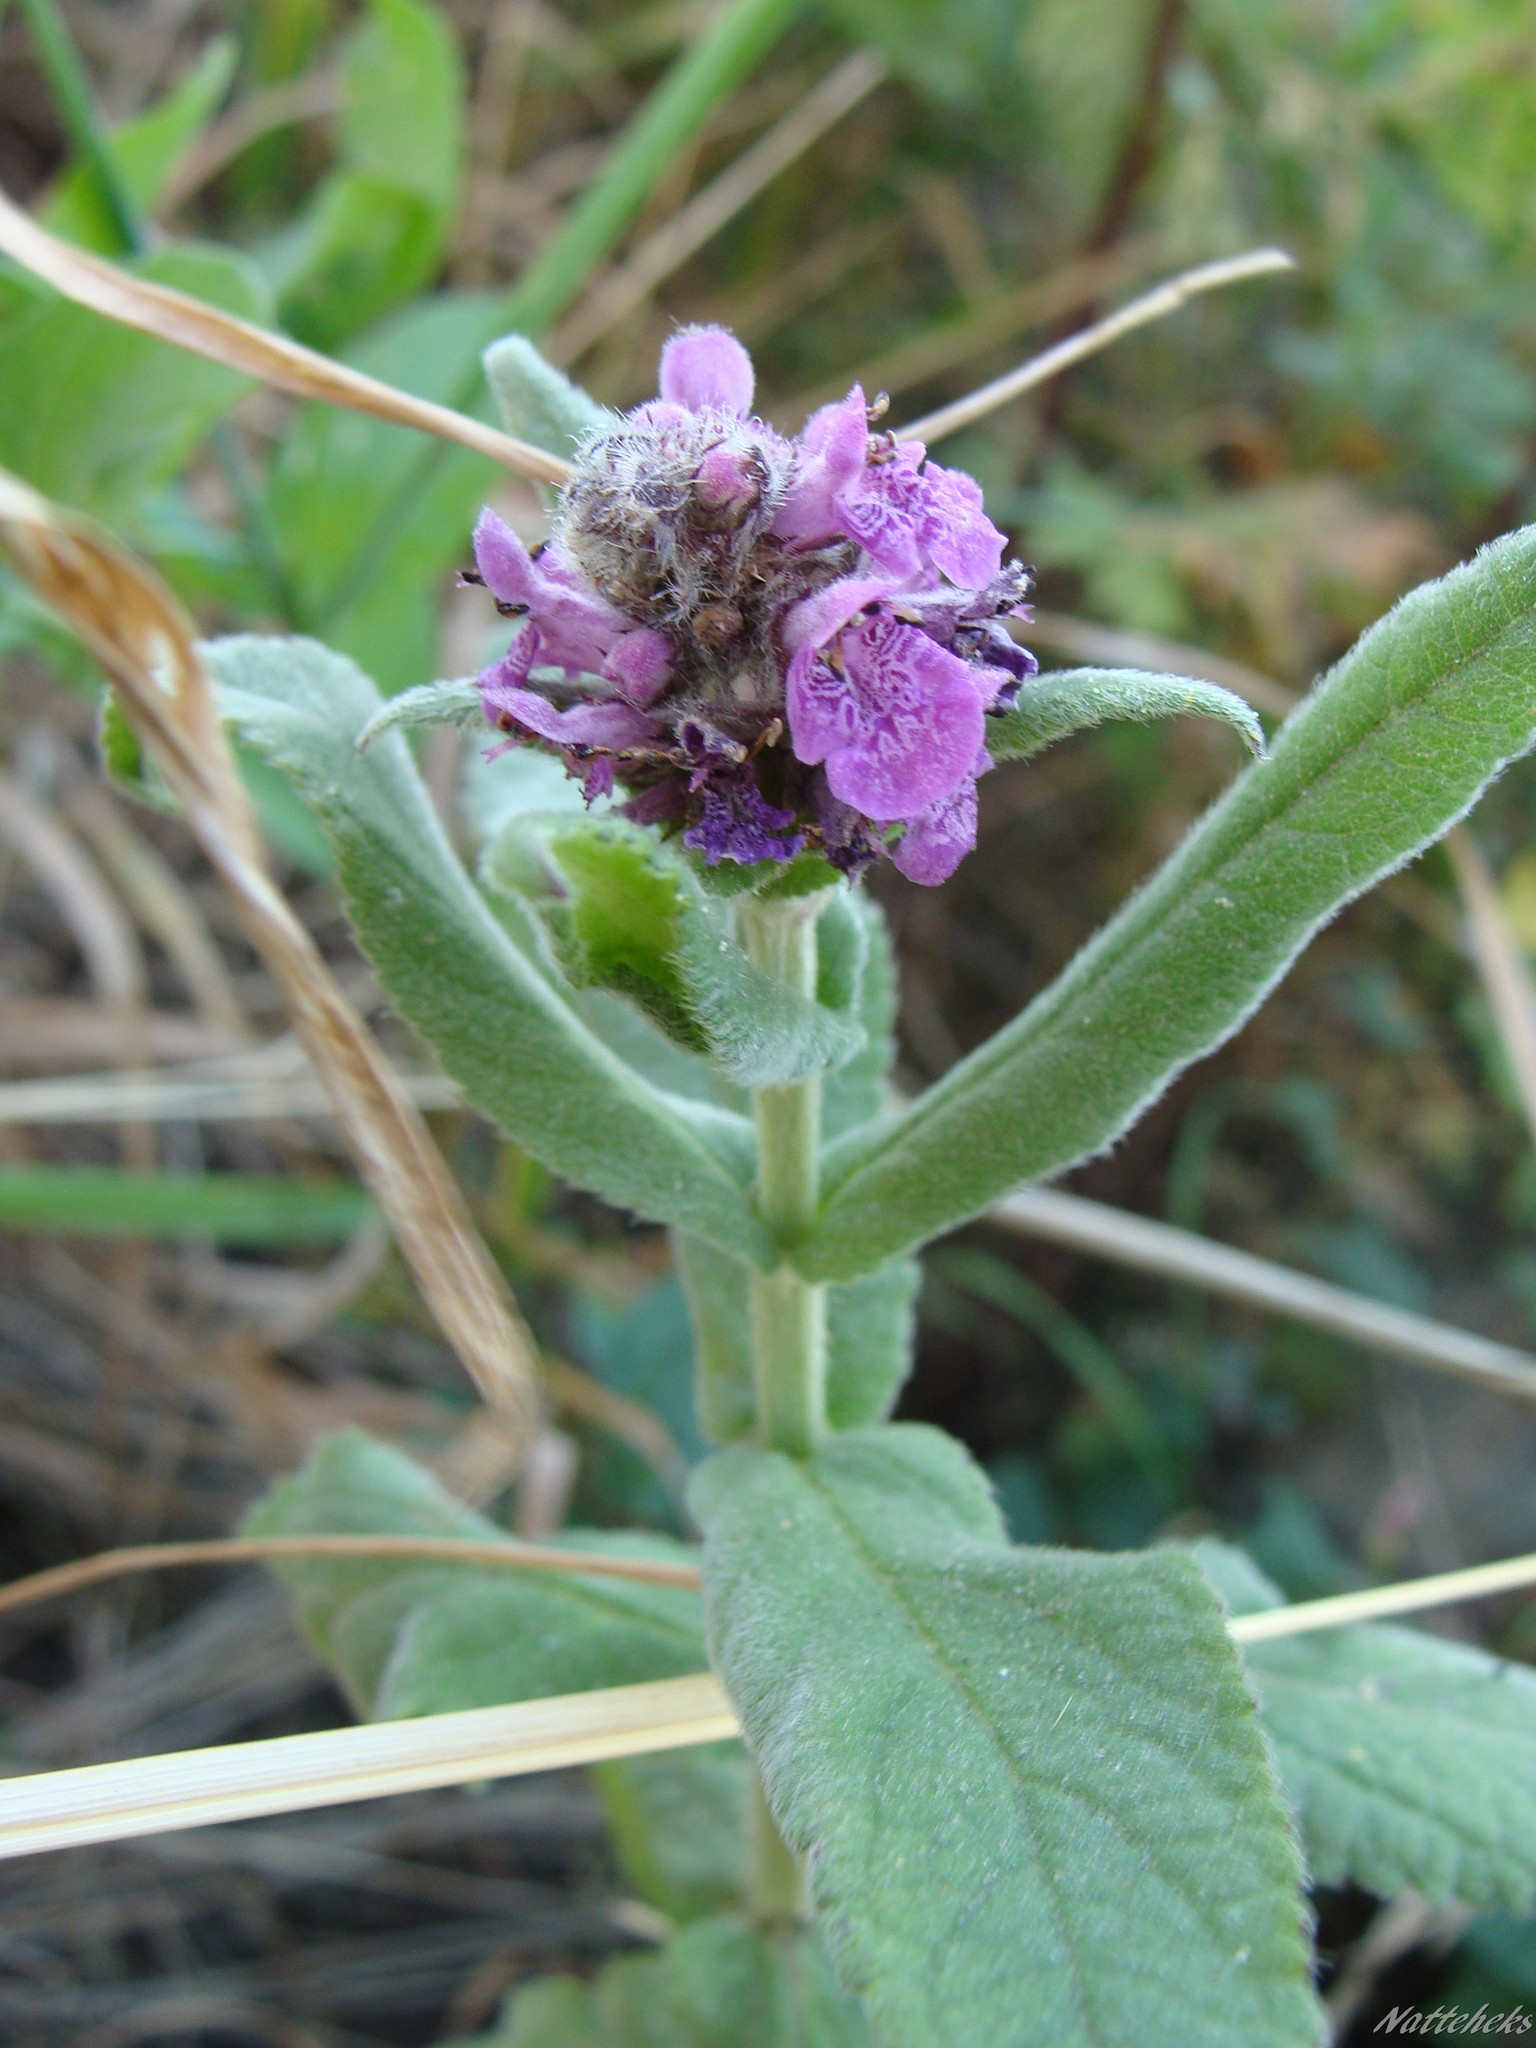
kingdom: Plantae
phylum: Tracheophyta
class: Magnoliopsida
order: Lamiales
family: Lamiaceae
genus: Stachys
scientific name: Stachys palustris
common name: Marsh woundwort
